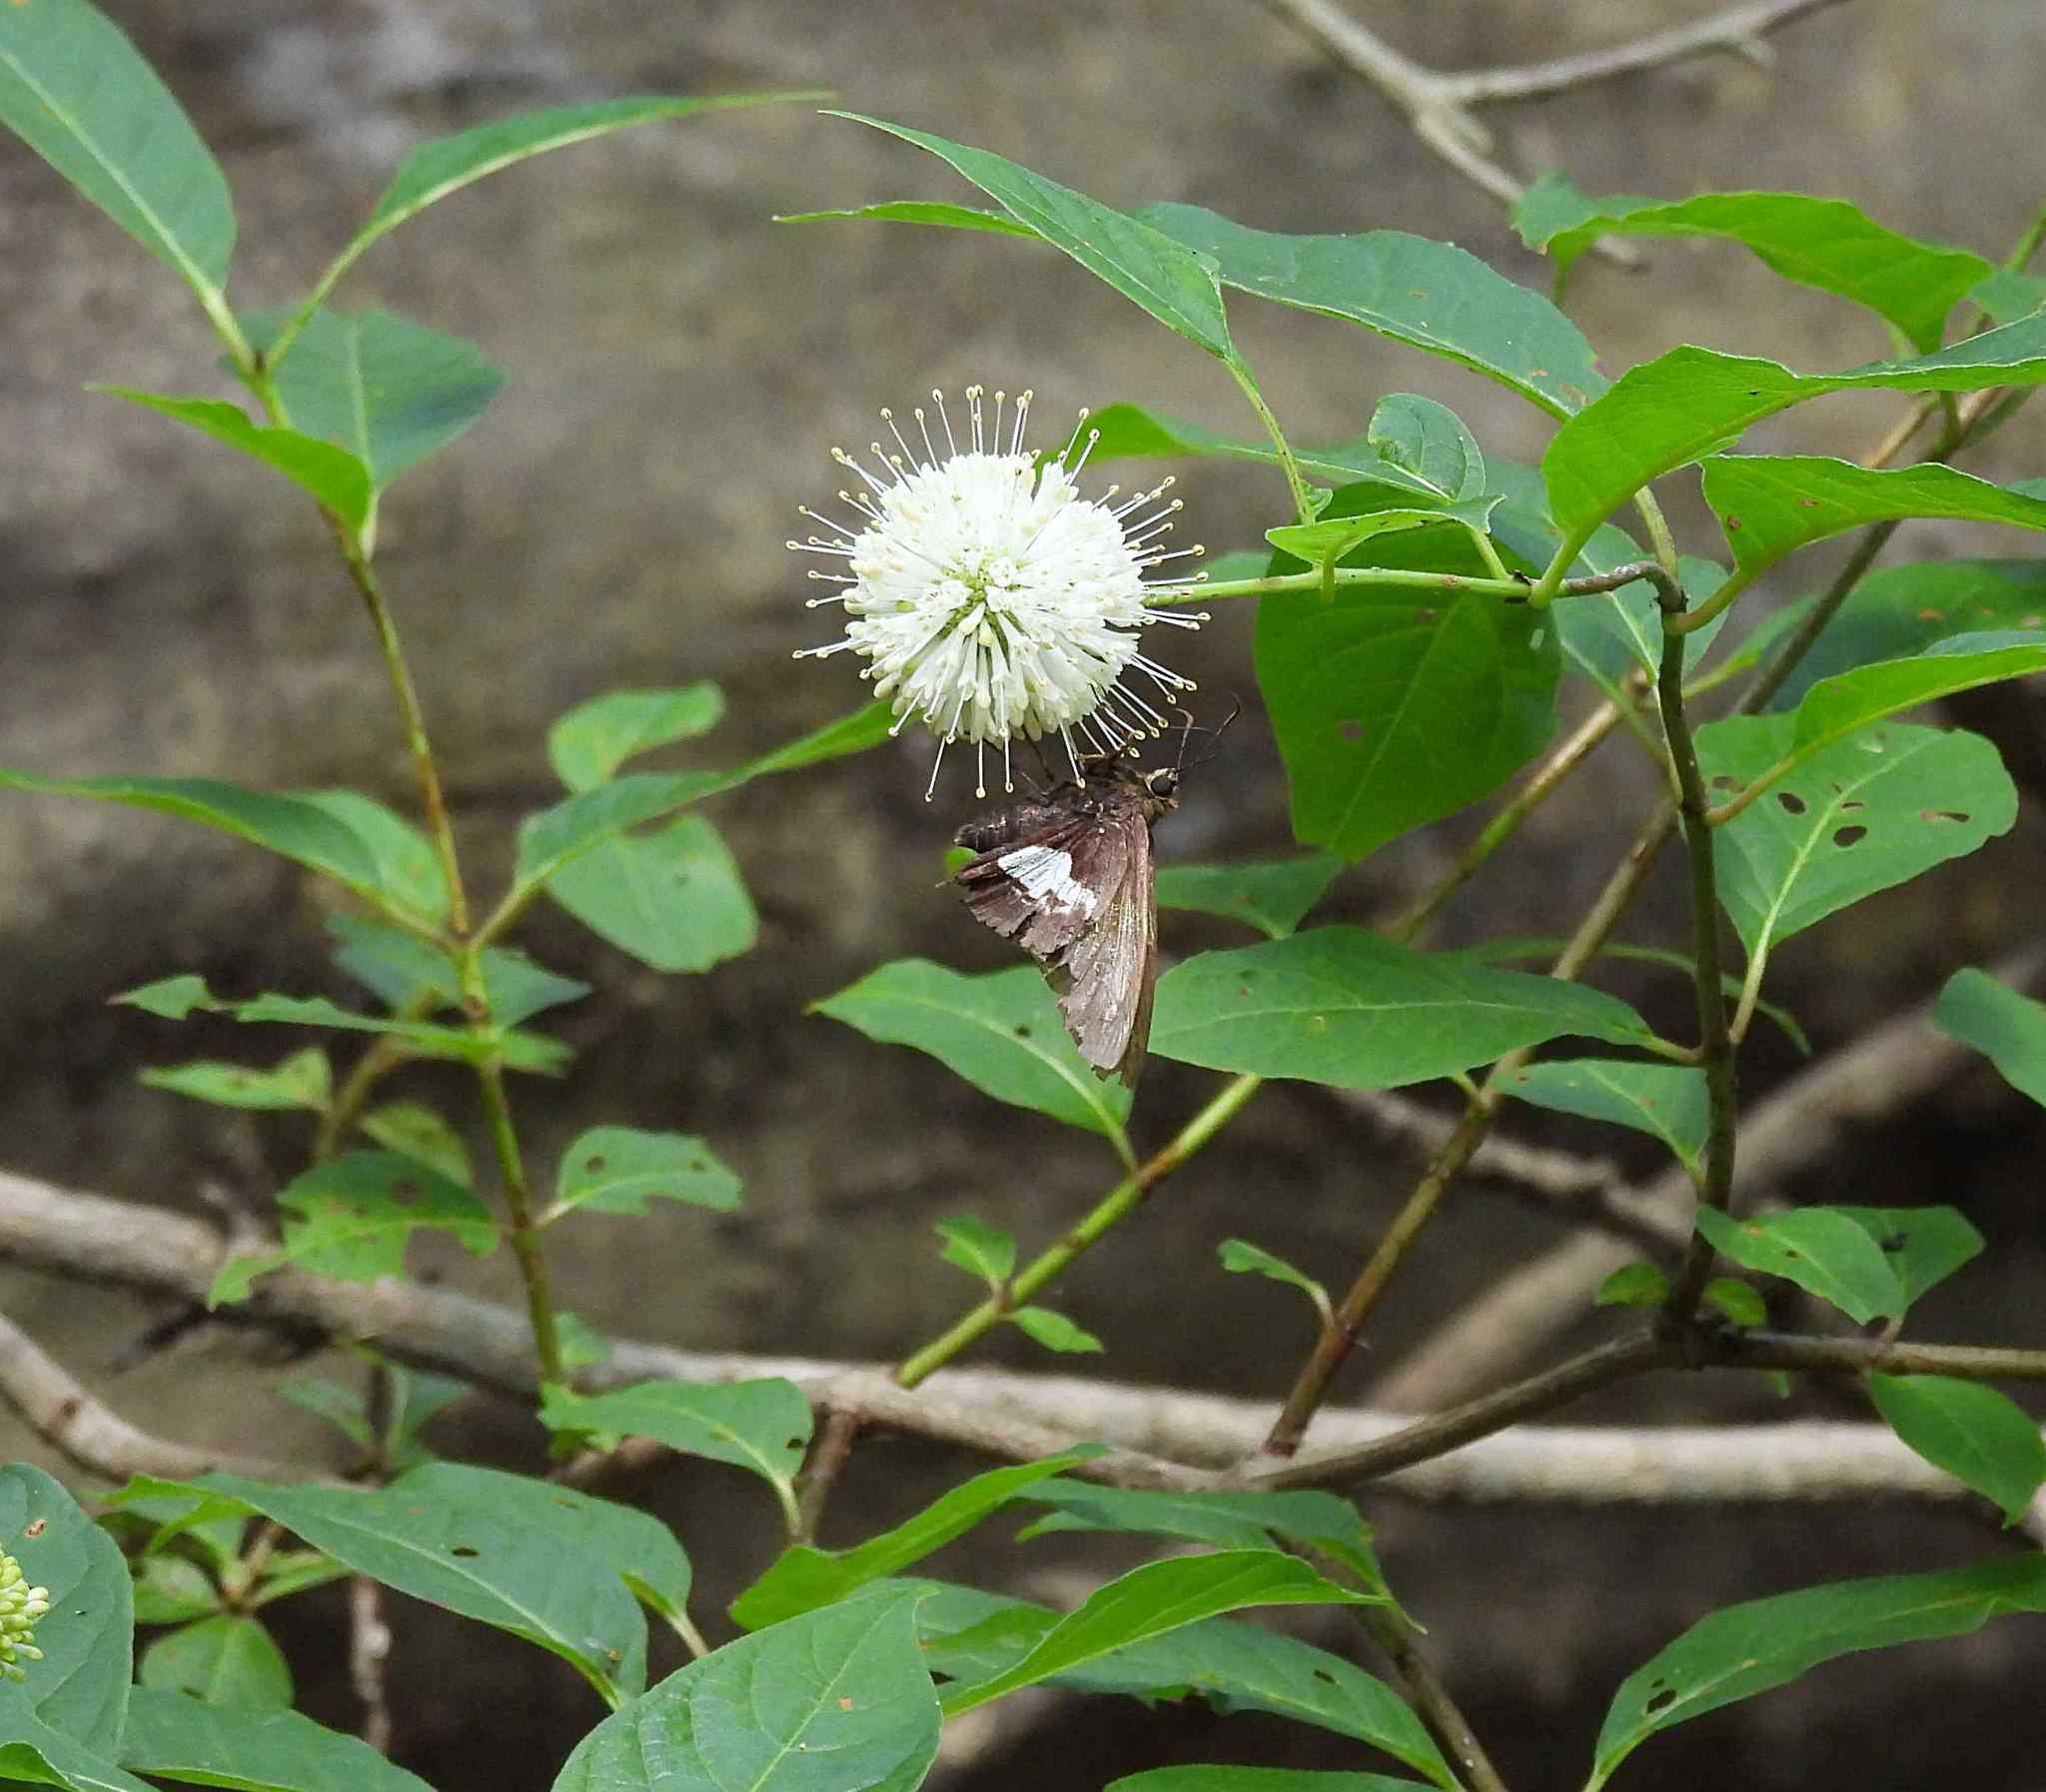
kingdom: Plantae
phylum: Tracheophyta
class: Magnoliopsida
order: Gentianales
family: Rubiaceae
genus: Cephalanthus
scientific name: Cephalanthus occidentalis
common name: Button-willow
